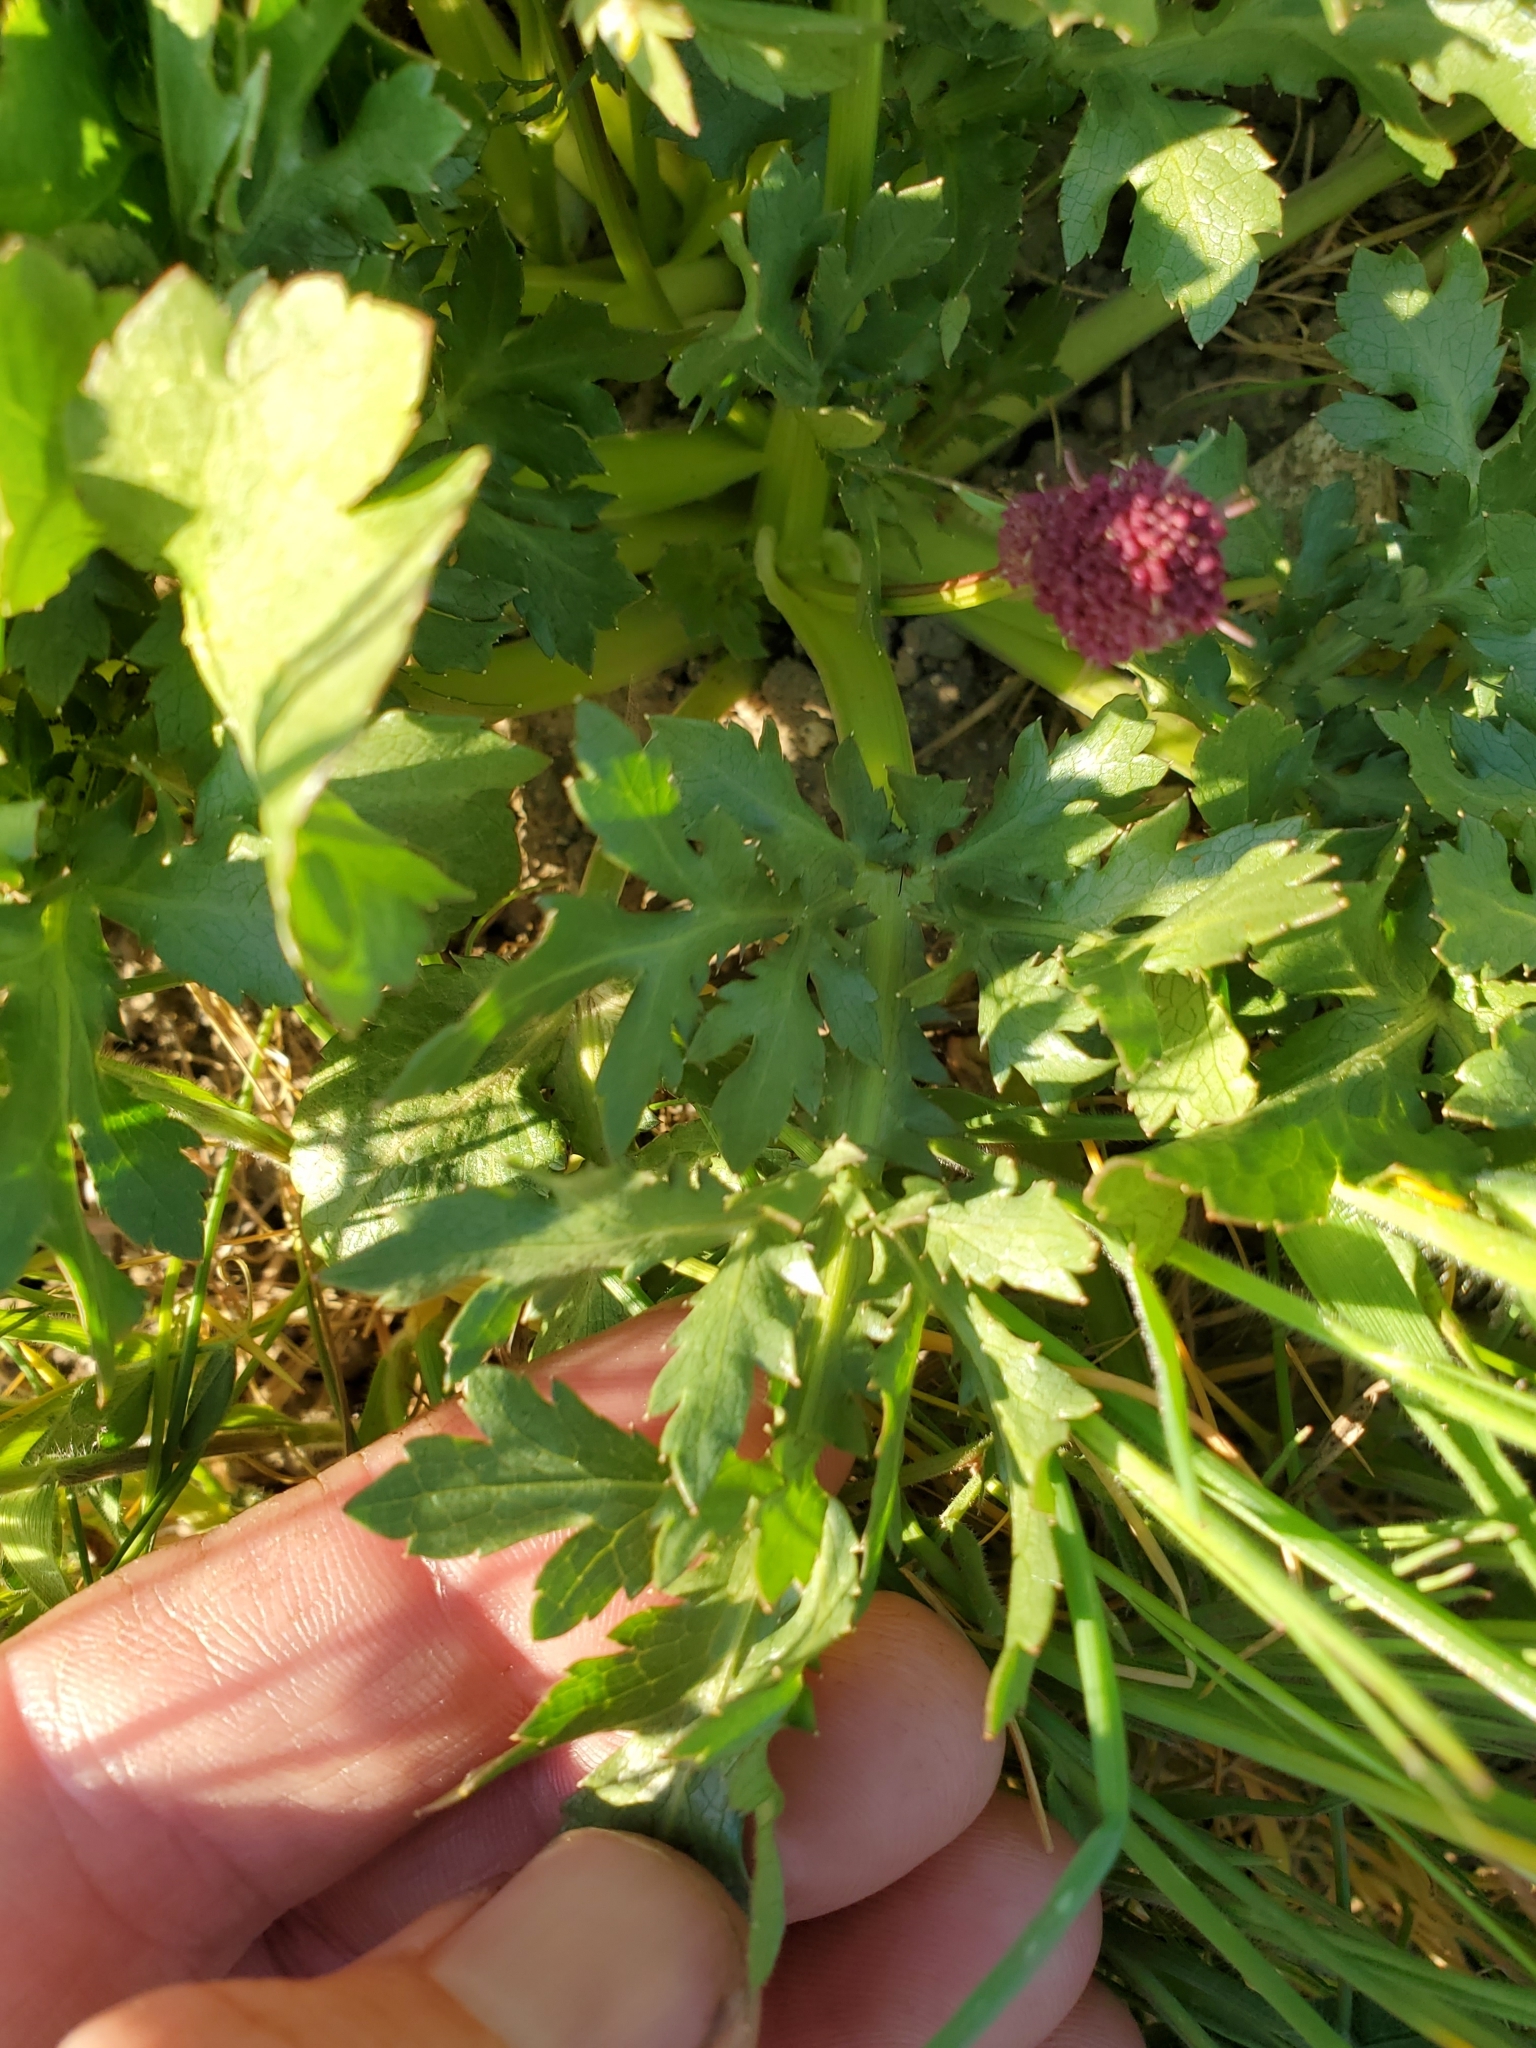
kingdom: Plantae
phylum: Tracheophyta
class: Magnoliopsida
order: Apiales
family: Apiaceae
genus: Sanicula
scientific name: Sanicula bipinnatifida
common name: Shoe-buttons
